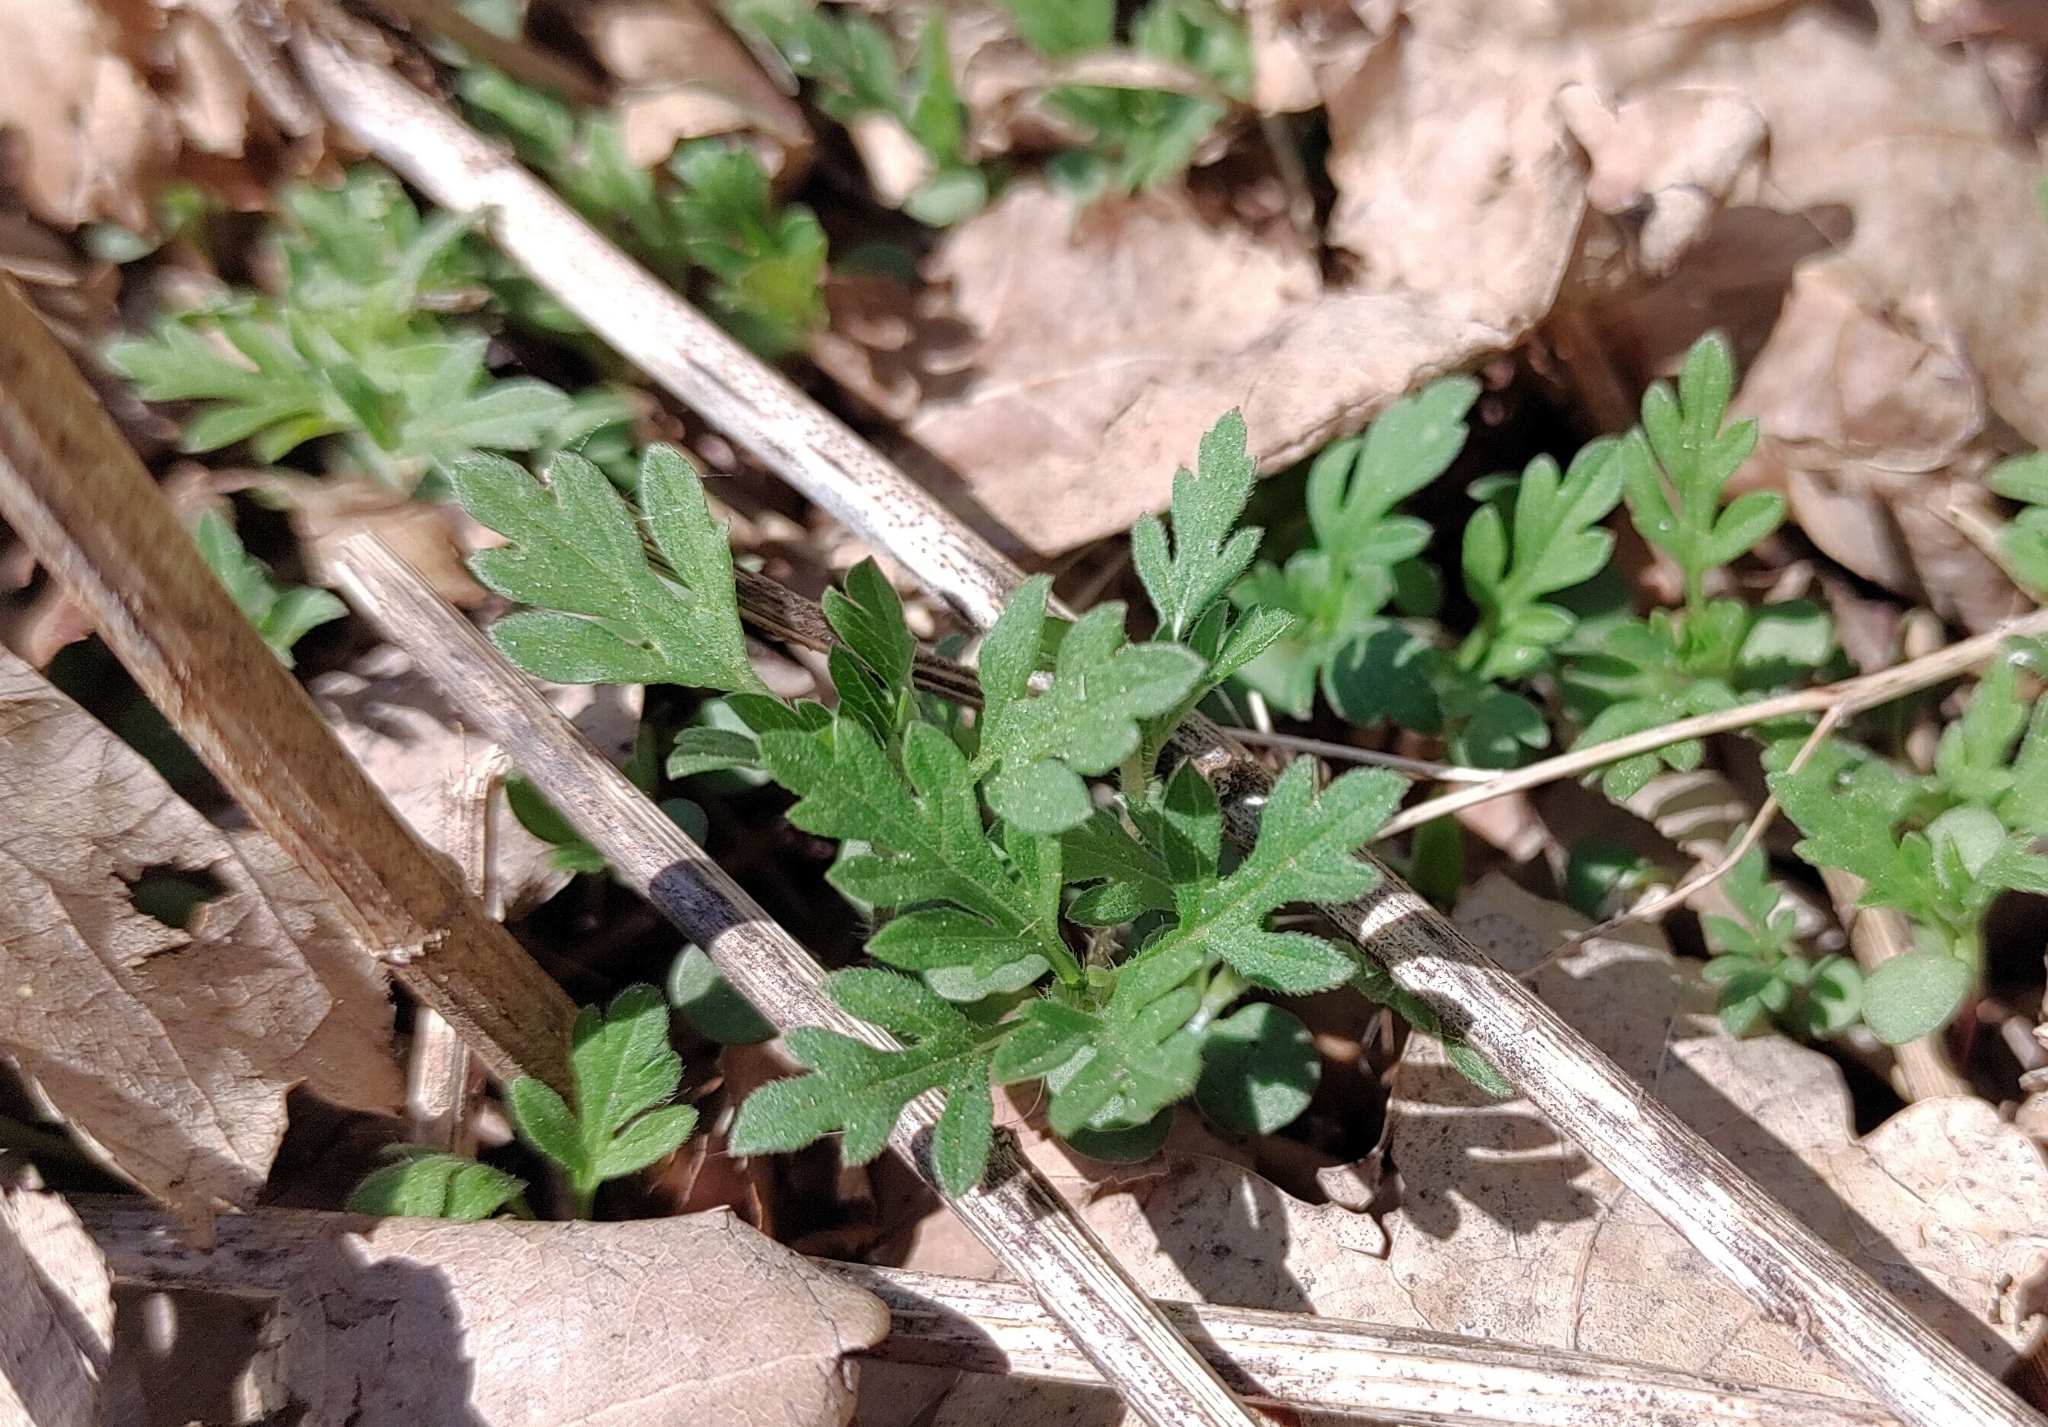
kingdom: Plantae
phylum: Tracheophyta
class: Magnoliopsida
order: Asterales
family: Asteraceae
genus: Ambrosia
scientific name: Ambrosia artemisiifolia
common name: Annual ragweed
